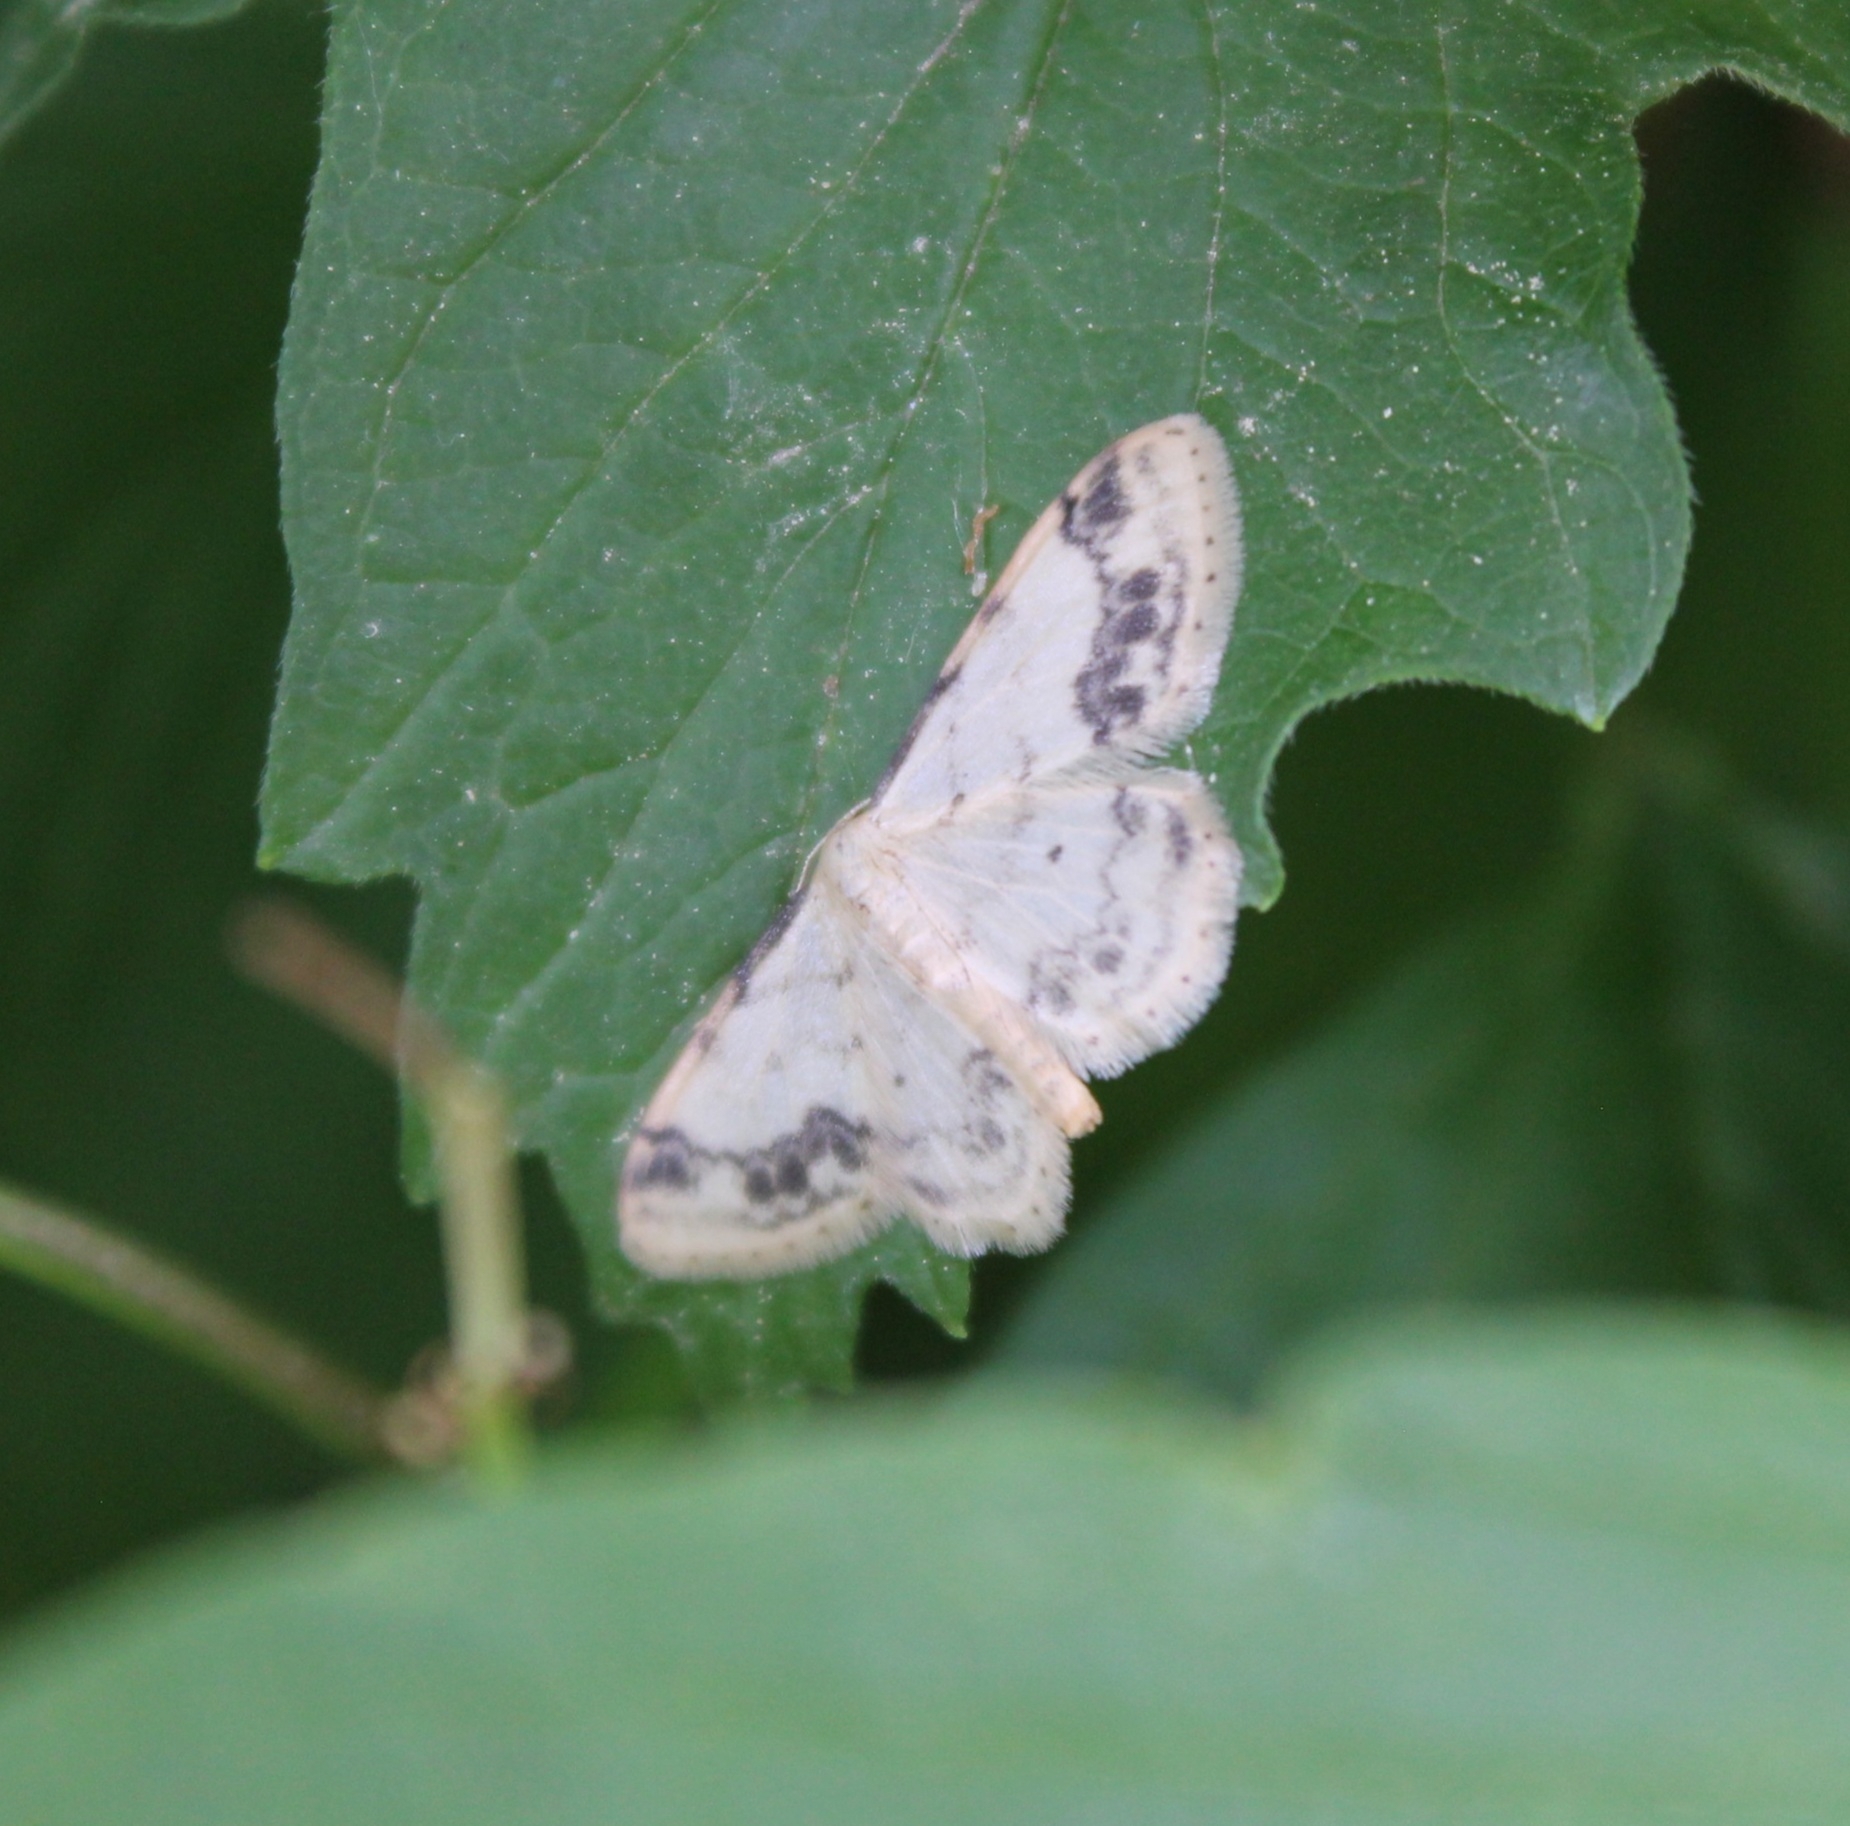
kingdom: Animalia
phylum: Arthropoda
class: Insecta
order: Lepidoptera
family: Geometridae
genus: Idaea
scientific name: Idaea trigeminata
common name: Treble brown spot
